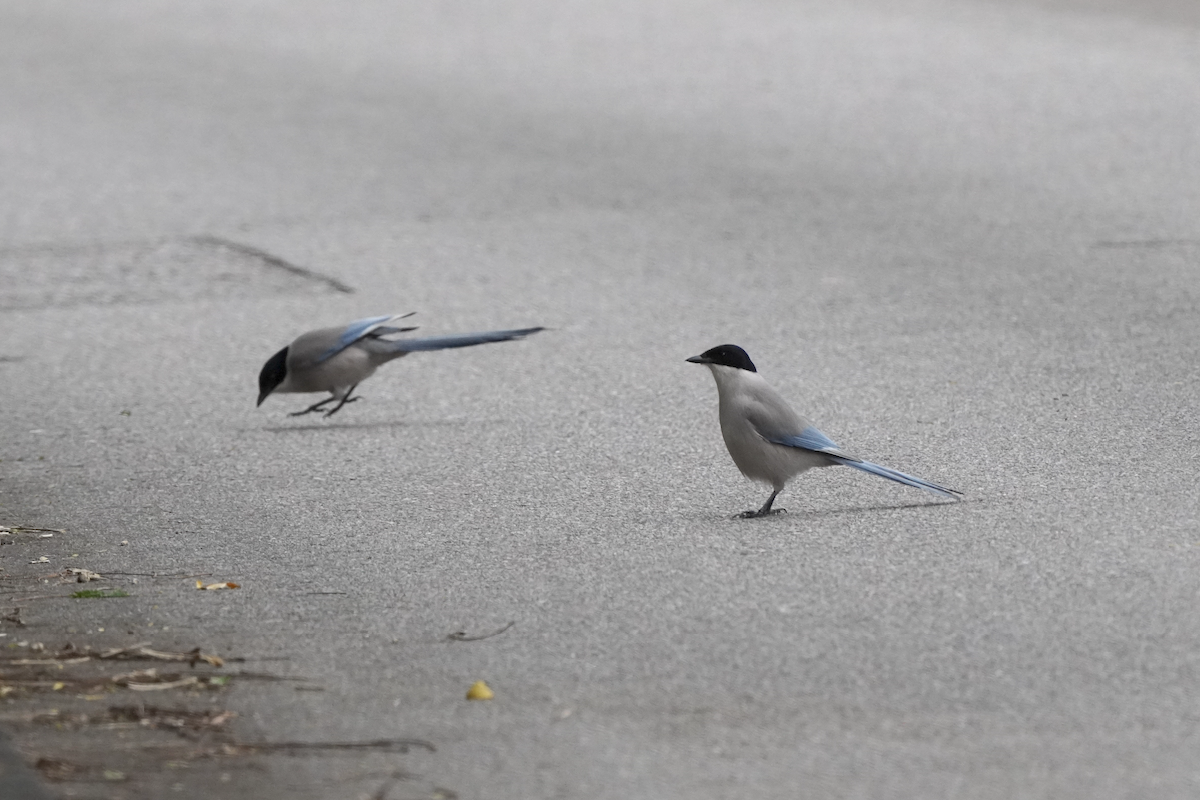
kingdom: Animalia
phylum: Chordata
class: Aves
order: Passeriformes
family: Corvidae
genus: Cyanopica
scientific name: Cyanopica cyanus
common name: Azure-winged magpie
